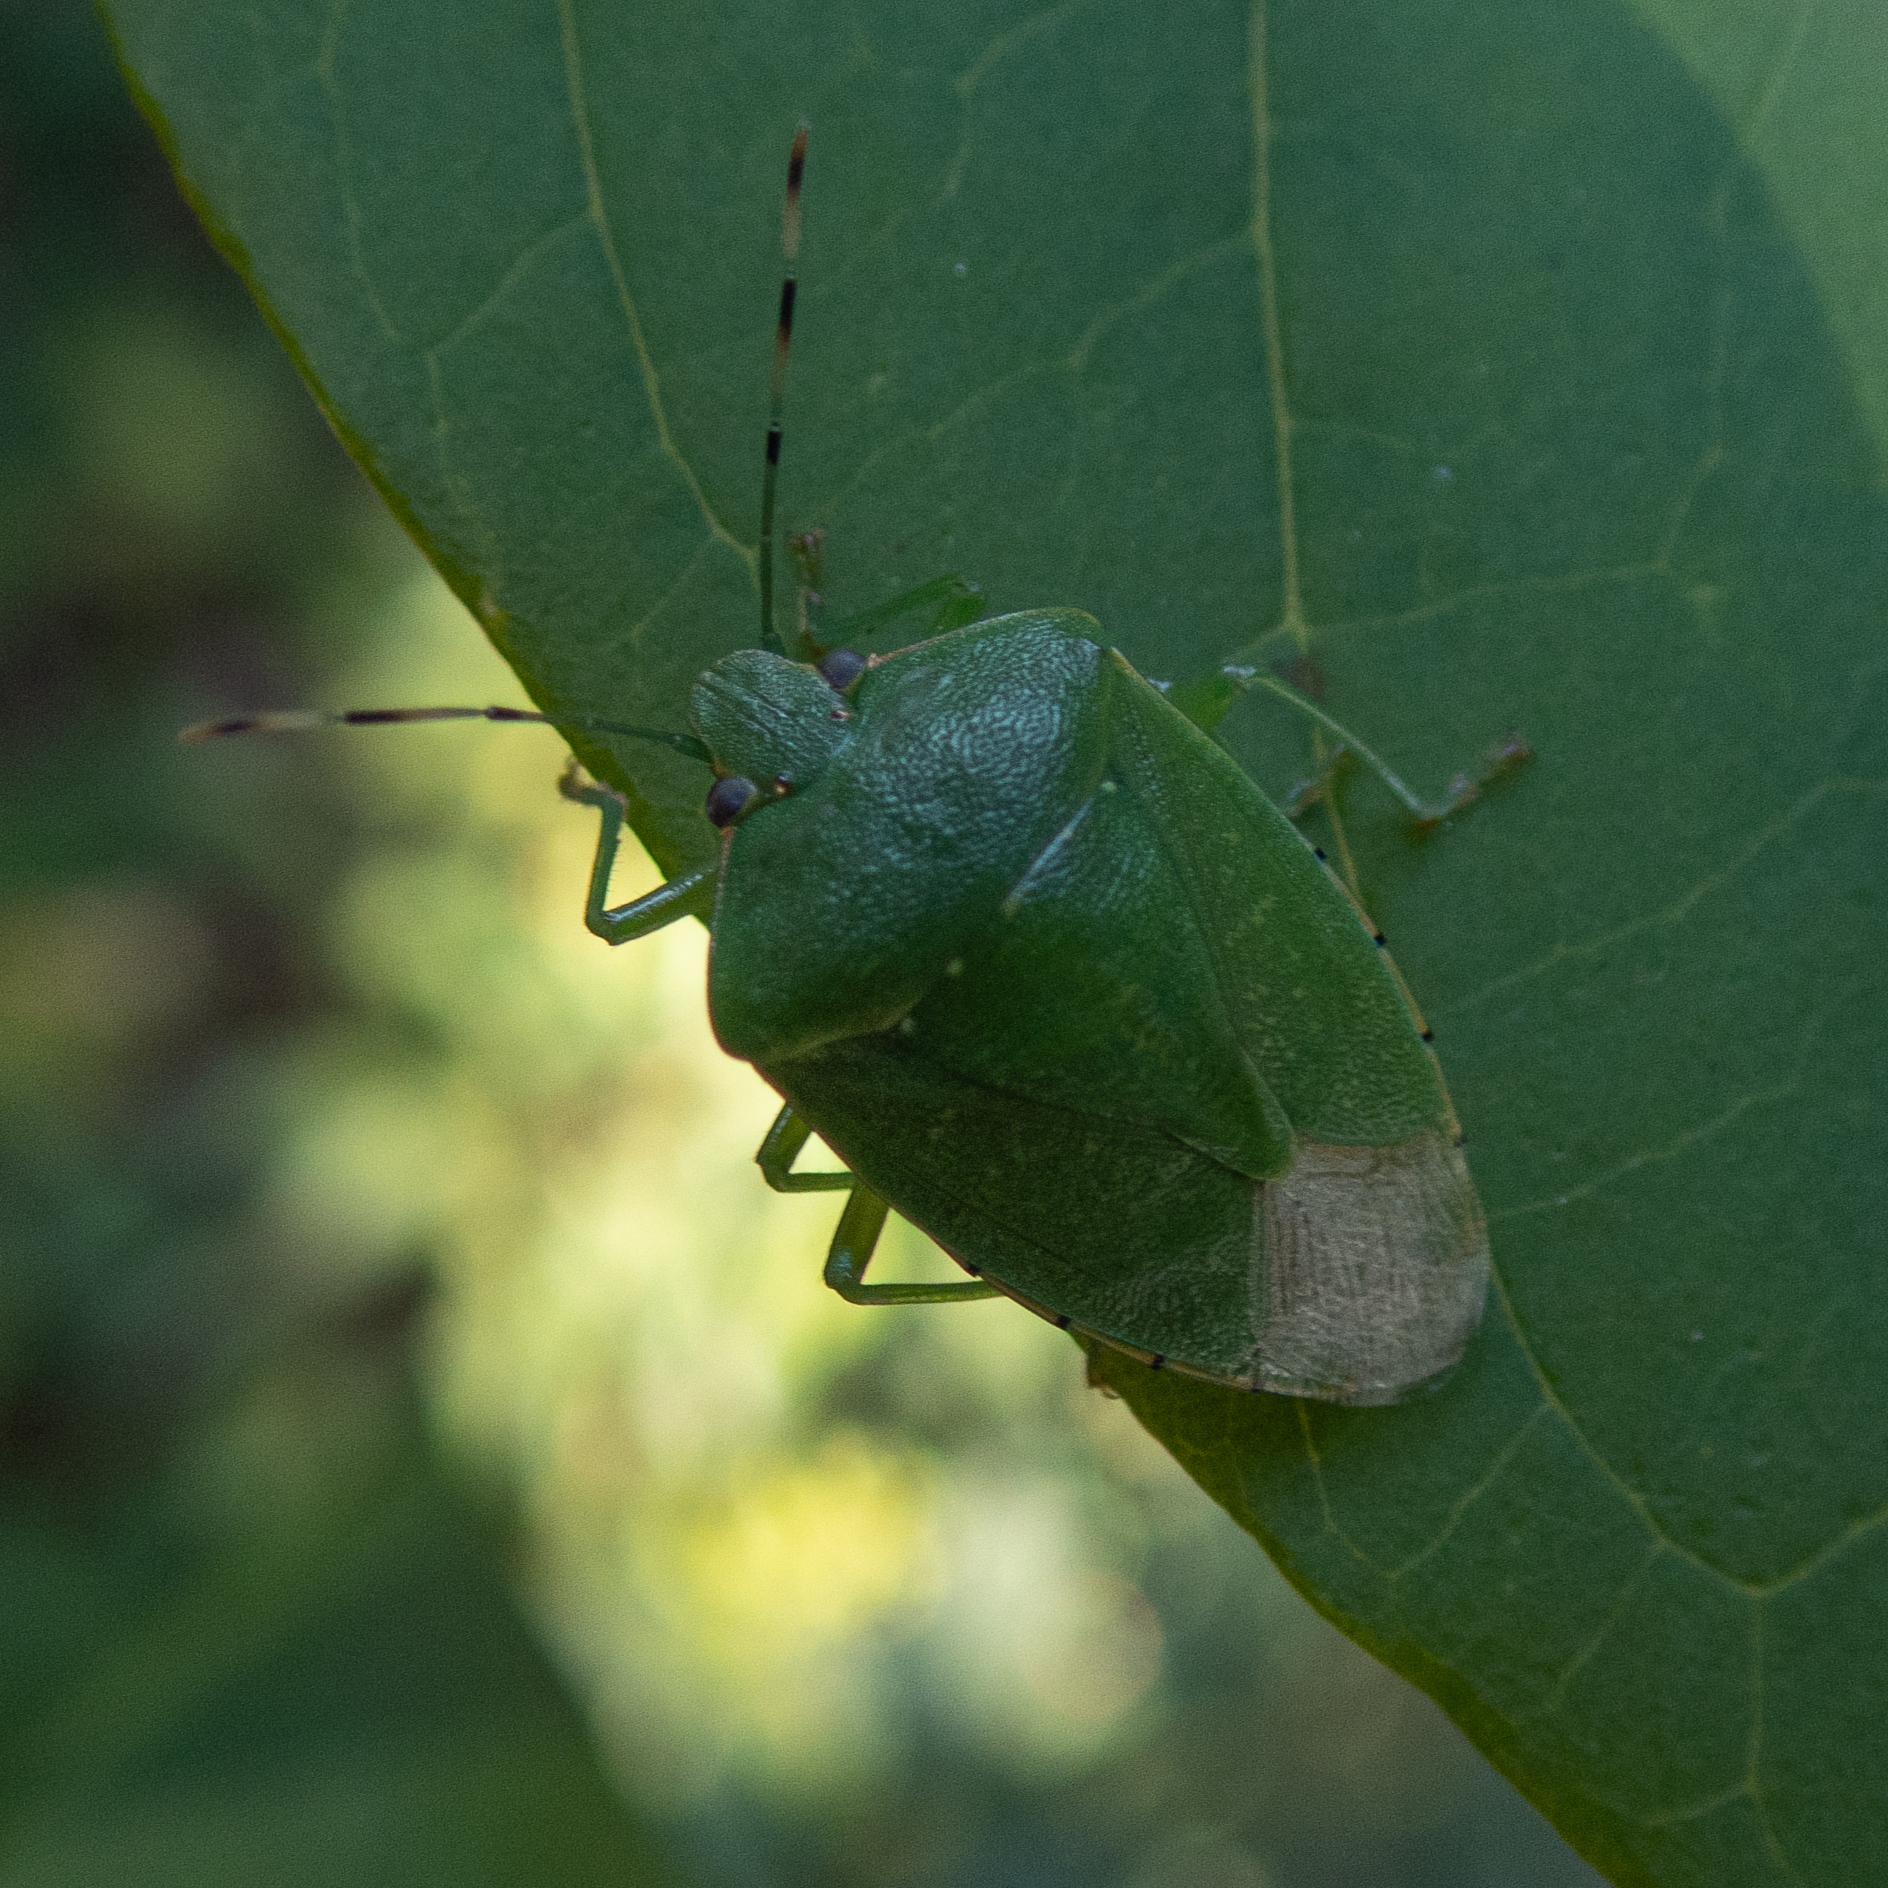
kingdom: Animalia
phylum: Arthropoda
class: Insecta
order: Hemiptera
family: Pentatomidae
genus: Chinavia
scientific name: Chinavia hilaris
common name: Green stink bug
